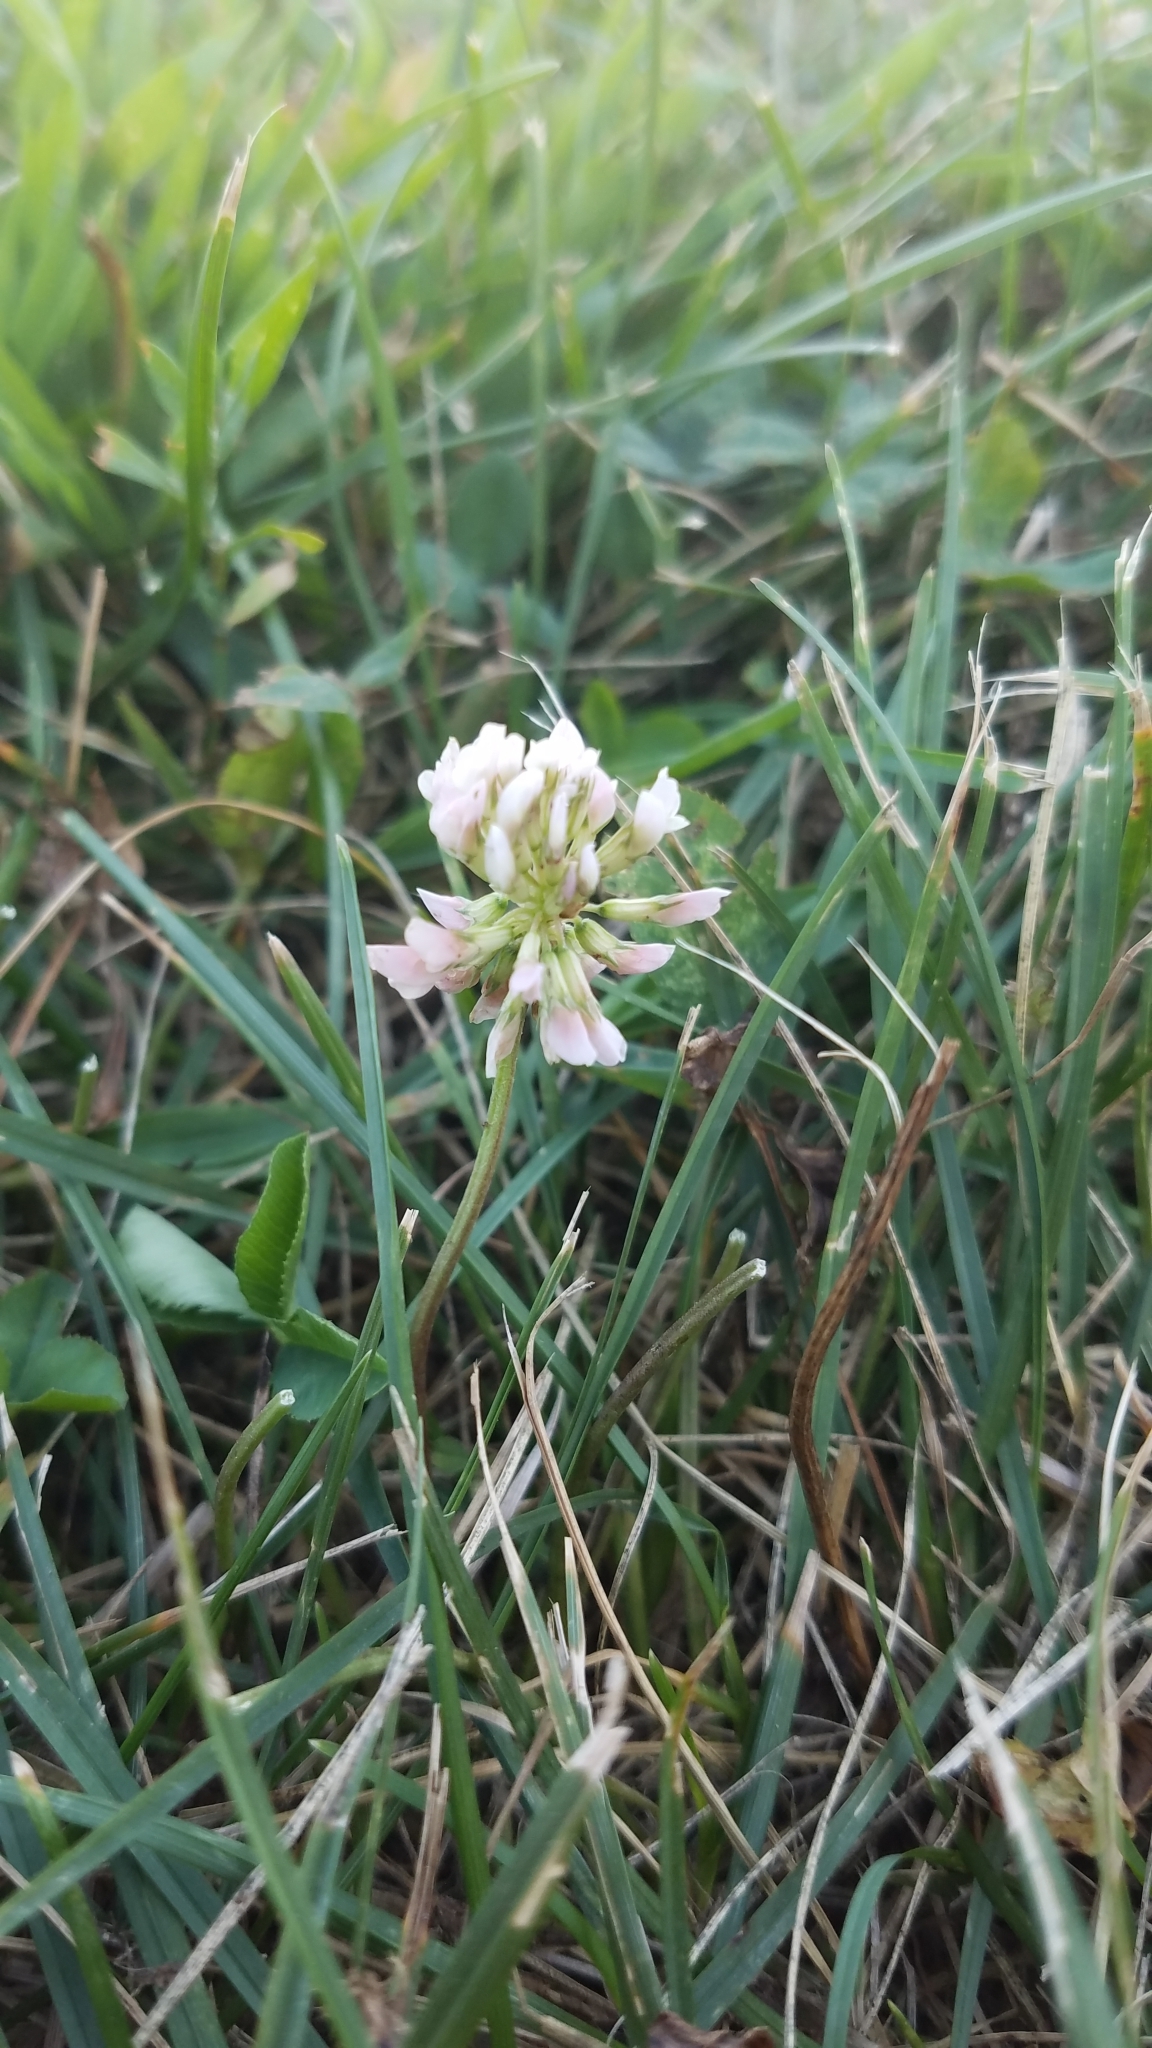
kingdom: Plantae
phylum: Tracheophyta
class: Magnoliopsida
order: Fabales
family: Fabaceae
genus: Trifolium
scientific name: Trifolium repens
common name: White clover
